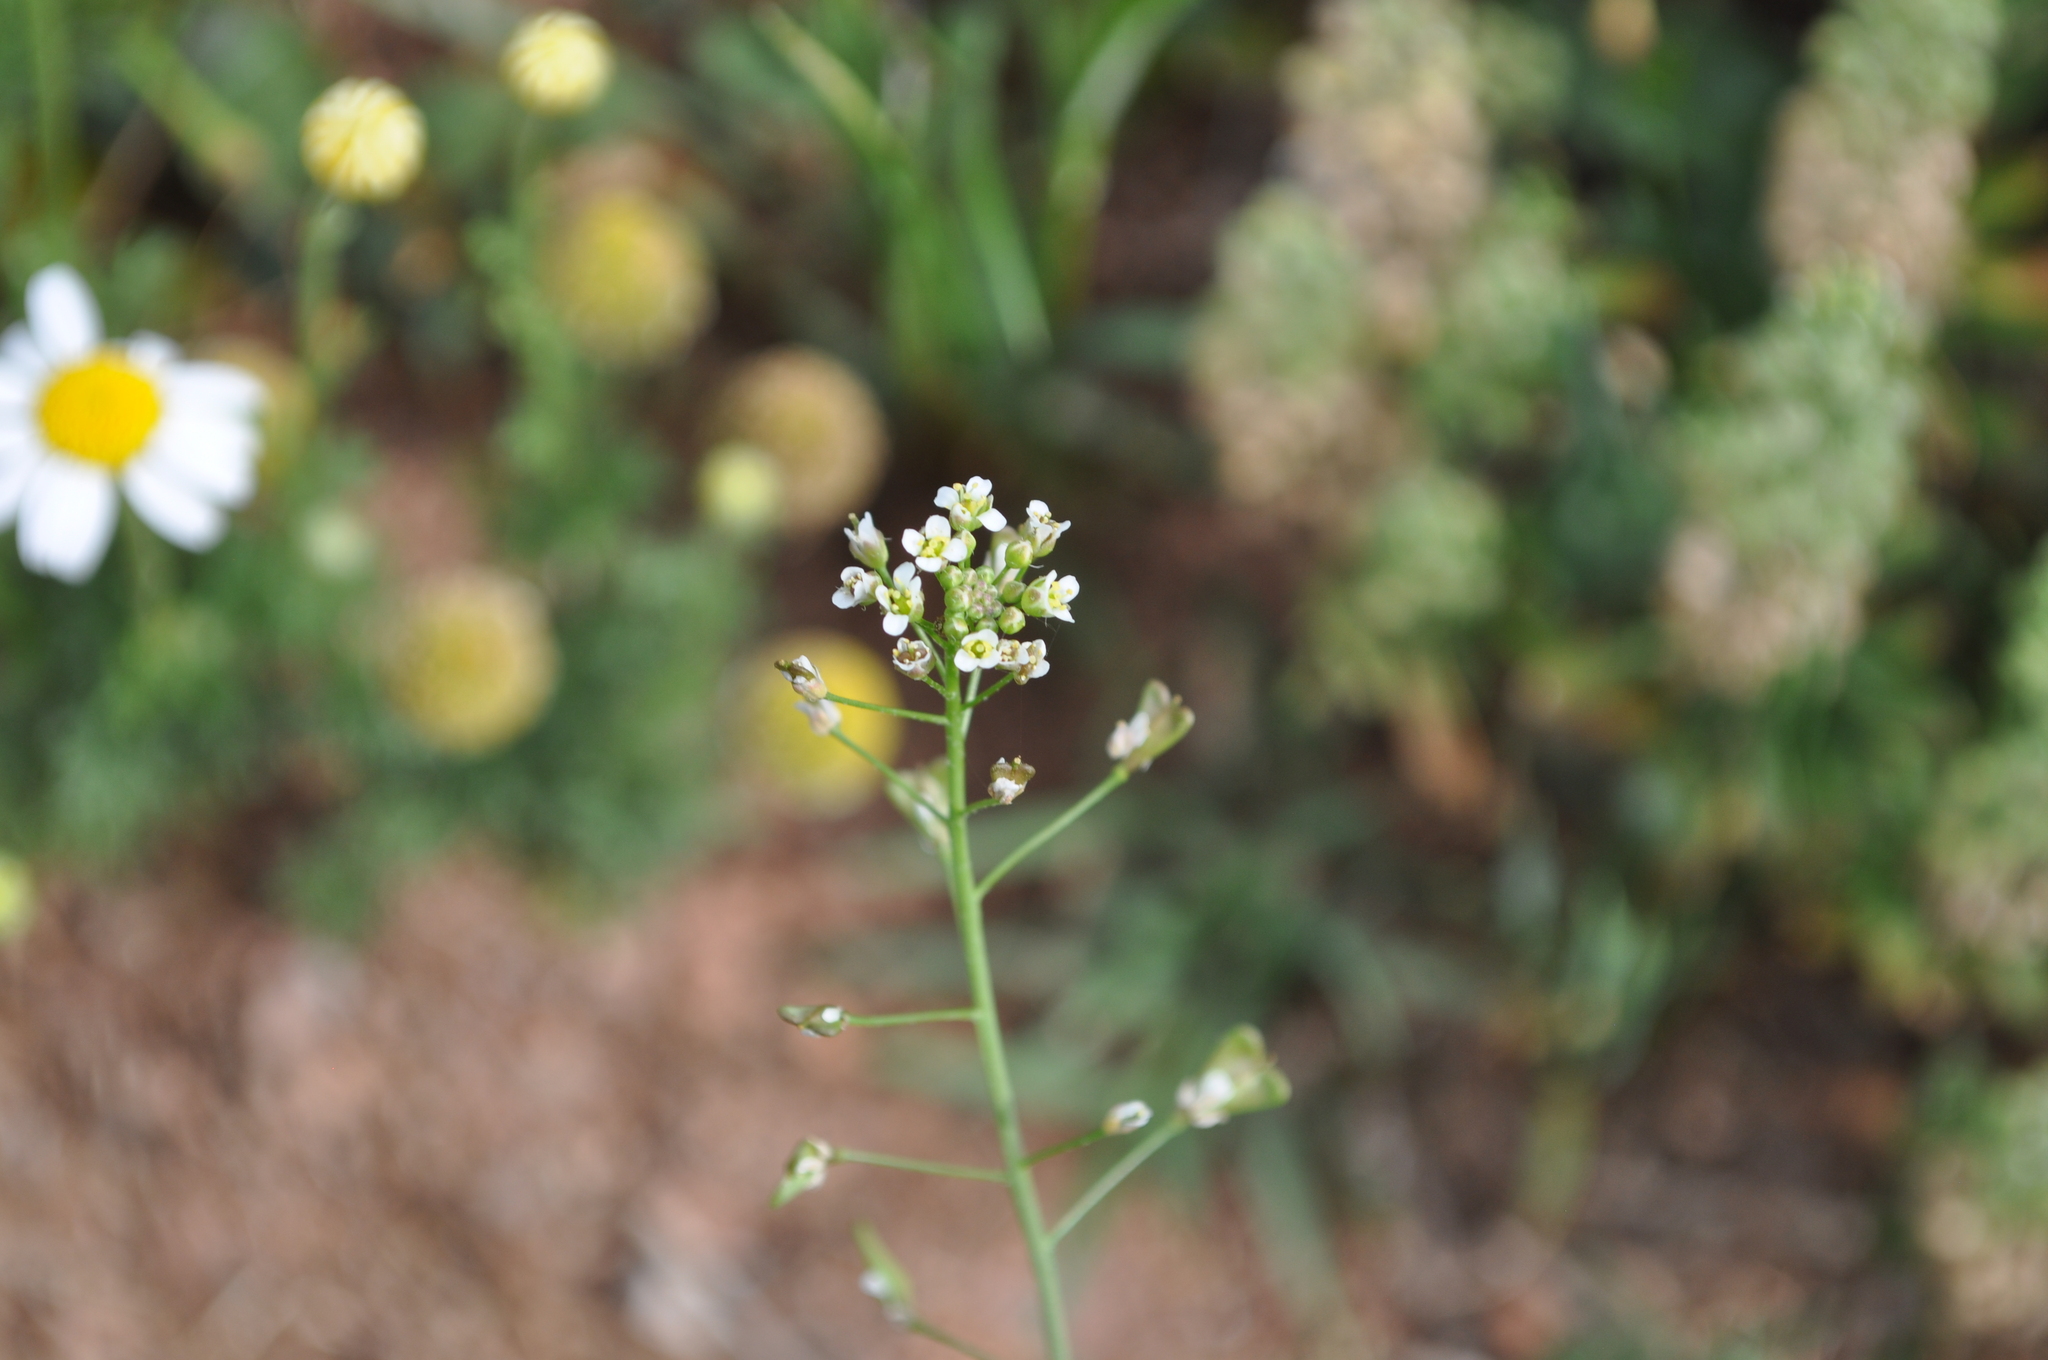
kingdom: Plantae
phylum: Tracheophyta
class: Magnoliopsida
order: Brassicales
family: Brassicaceae
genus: Capsella
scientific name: Capsella bursa-pastoris
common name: Shepherd's purse
